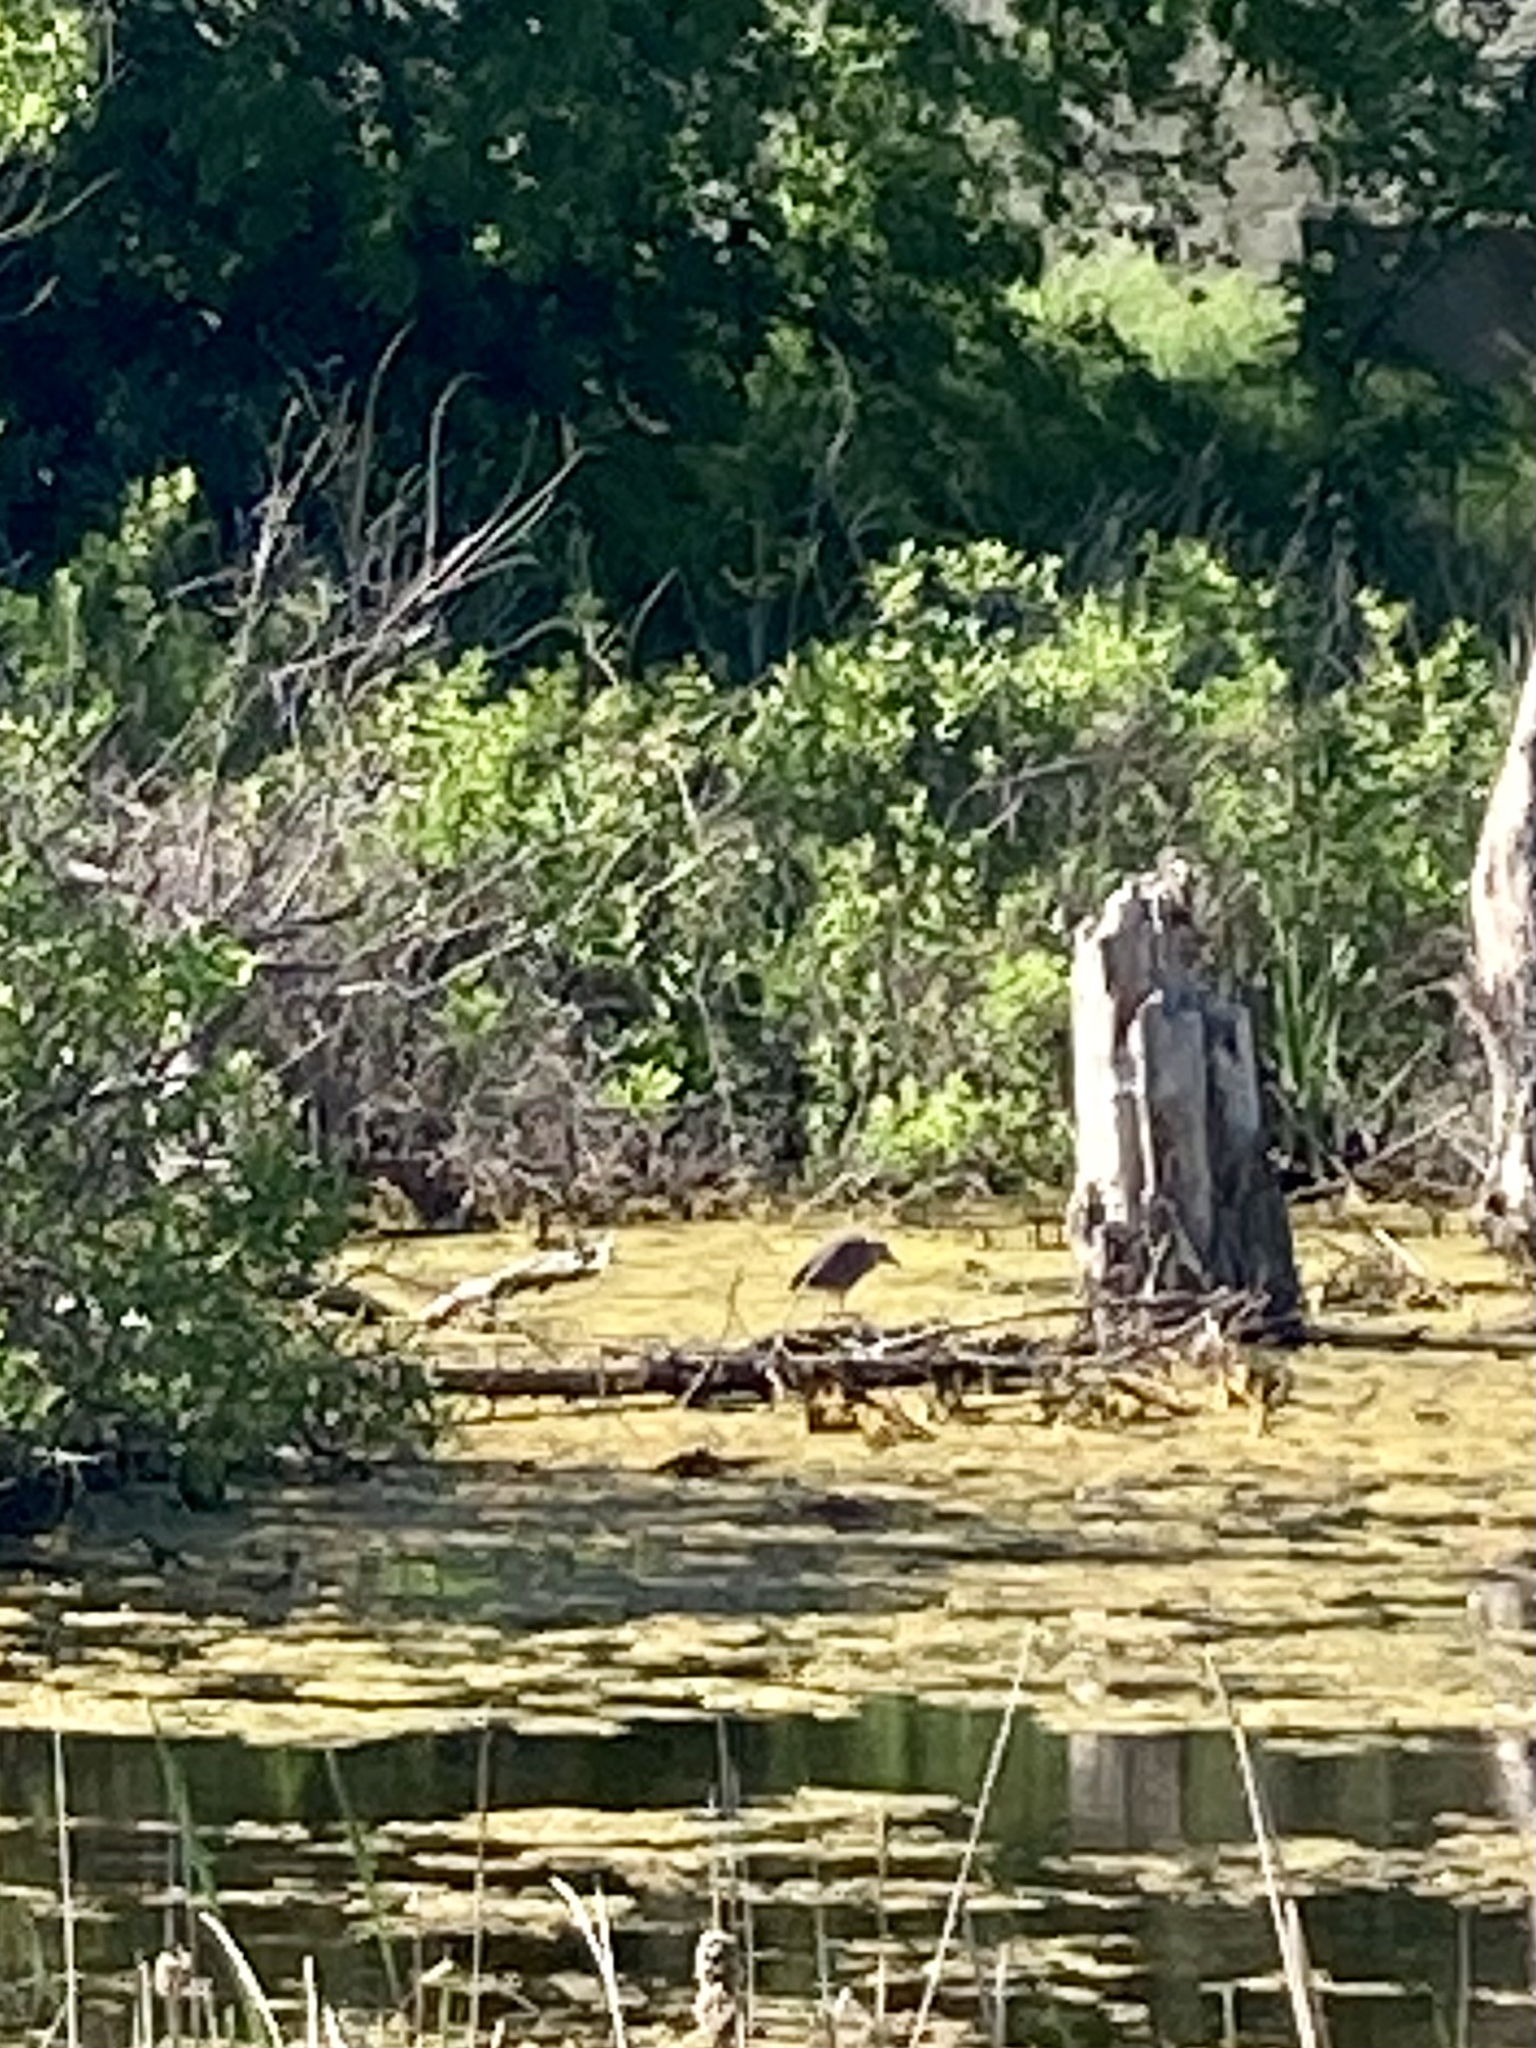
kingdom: Animalia
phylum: Chordata
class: Aves
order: Pelecaniformes
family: Ardeidae
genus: Nyctanassa
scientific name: Nyctanassa violacea
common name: Yellow-crowned night heron
